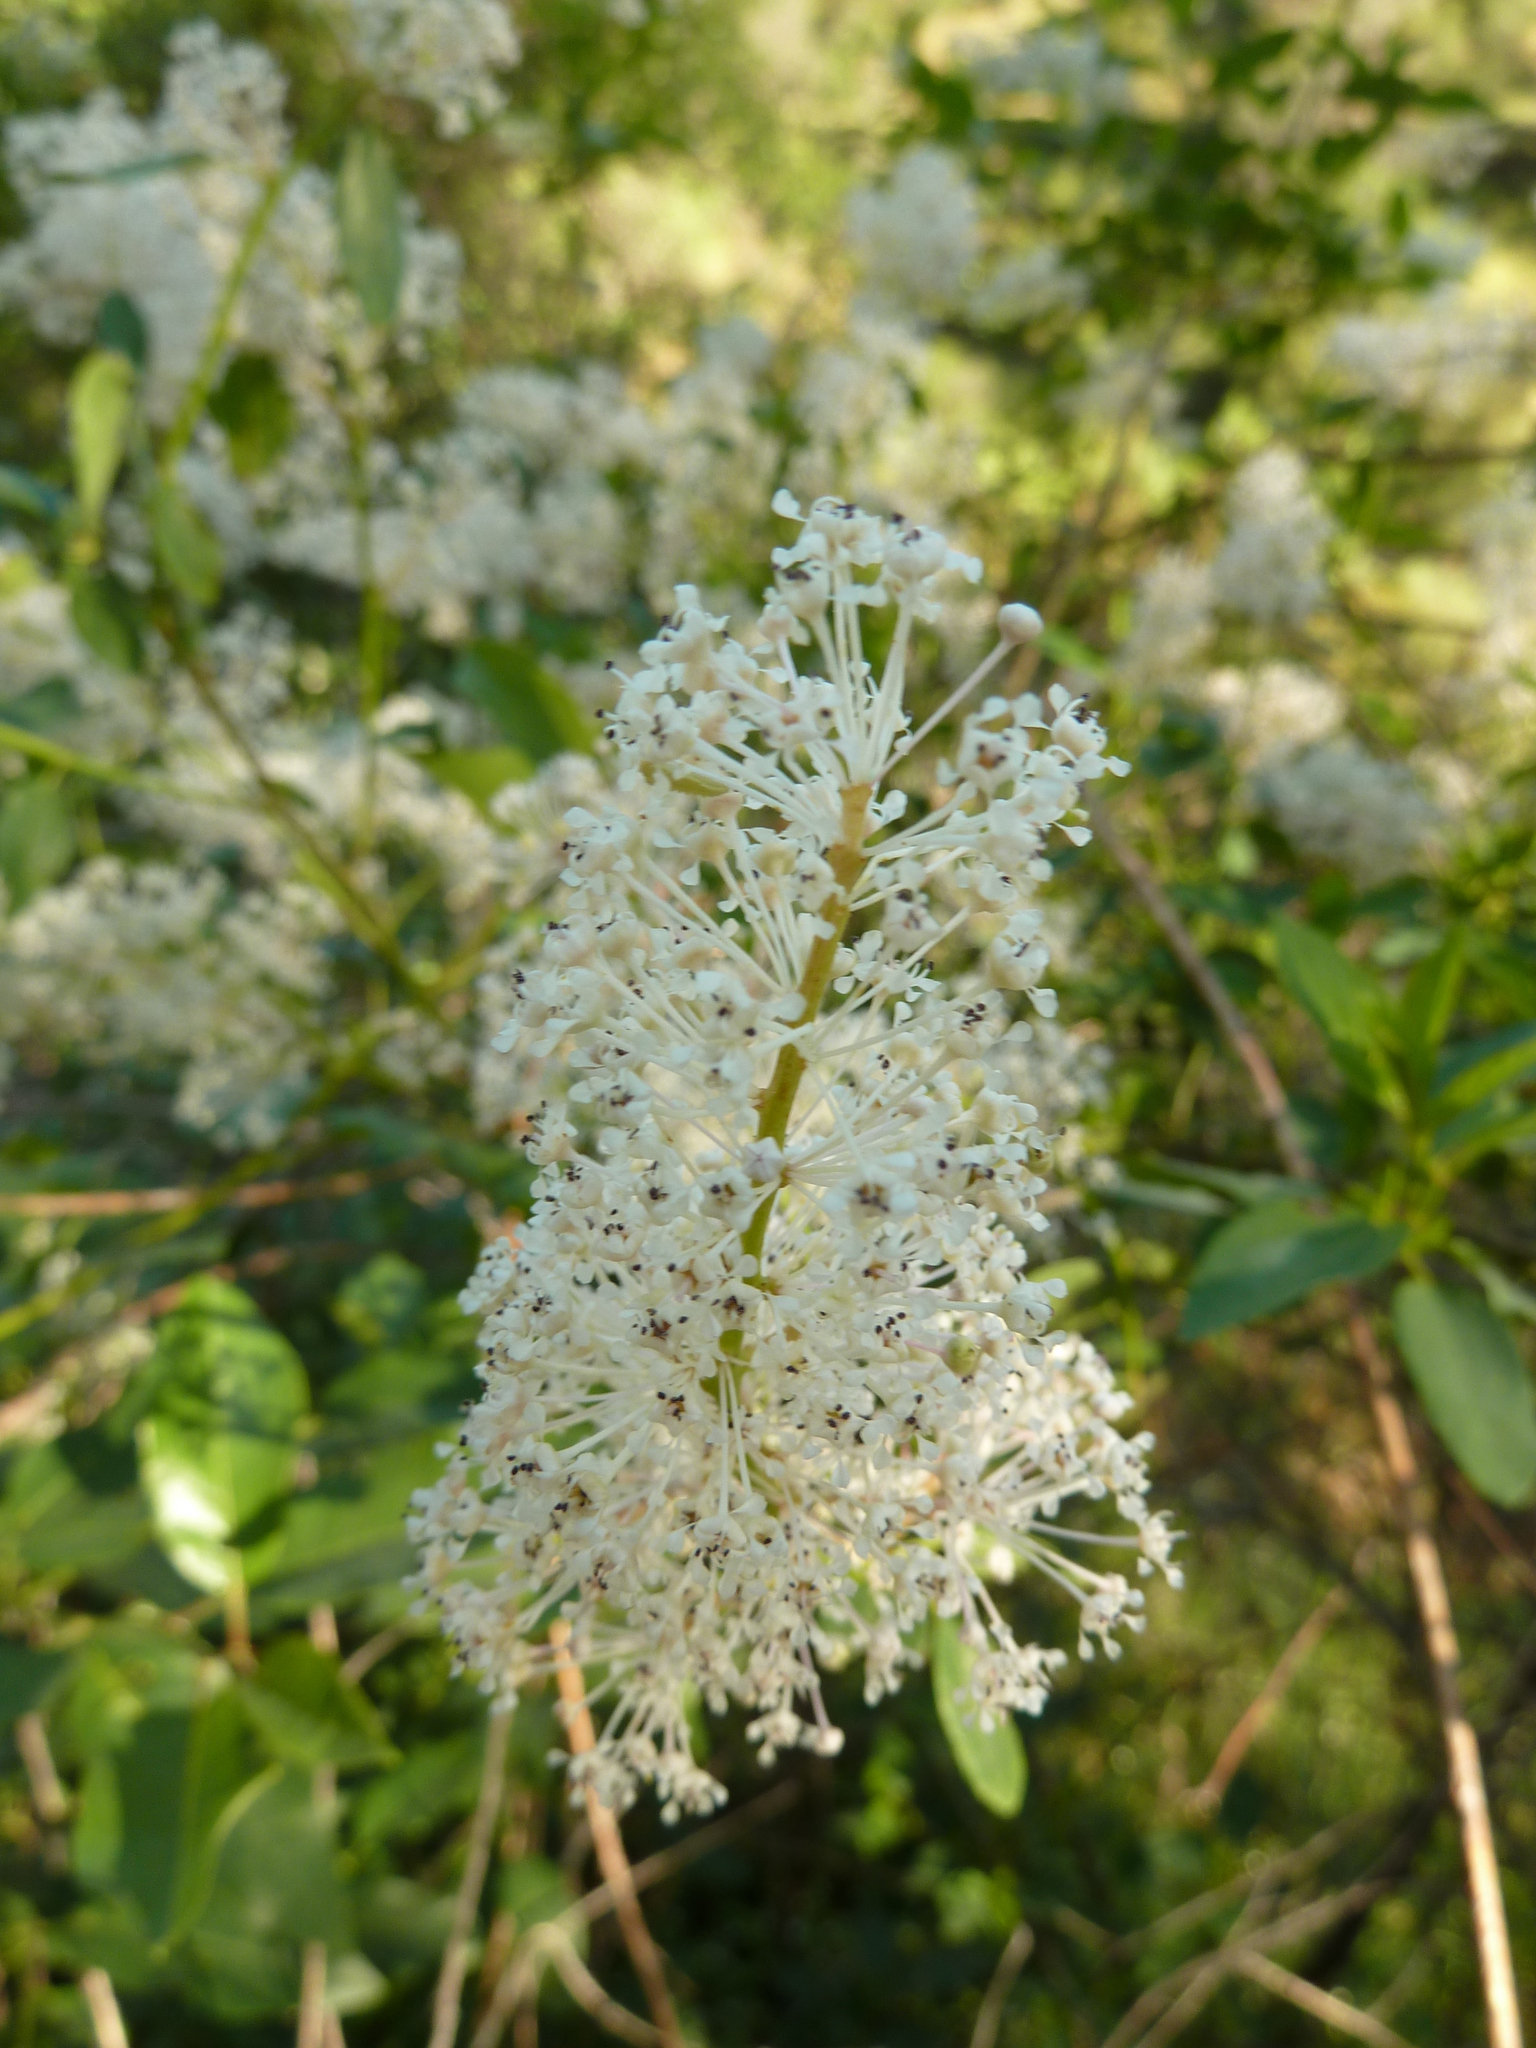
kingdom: Plantae
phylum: Tracheophyta
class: Magnoliopsida
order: Rosales
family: Rhamnaceae
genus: Ceanothus
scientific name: Ceanothus integerrimus
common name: Deerbrush ceanothus
